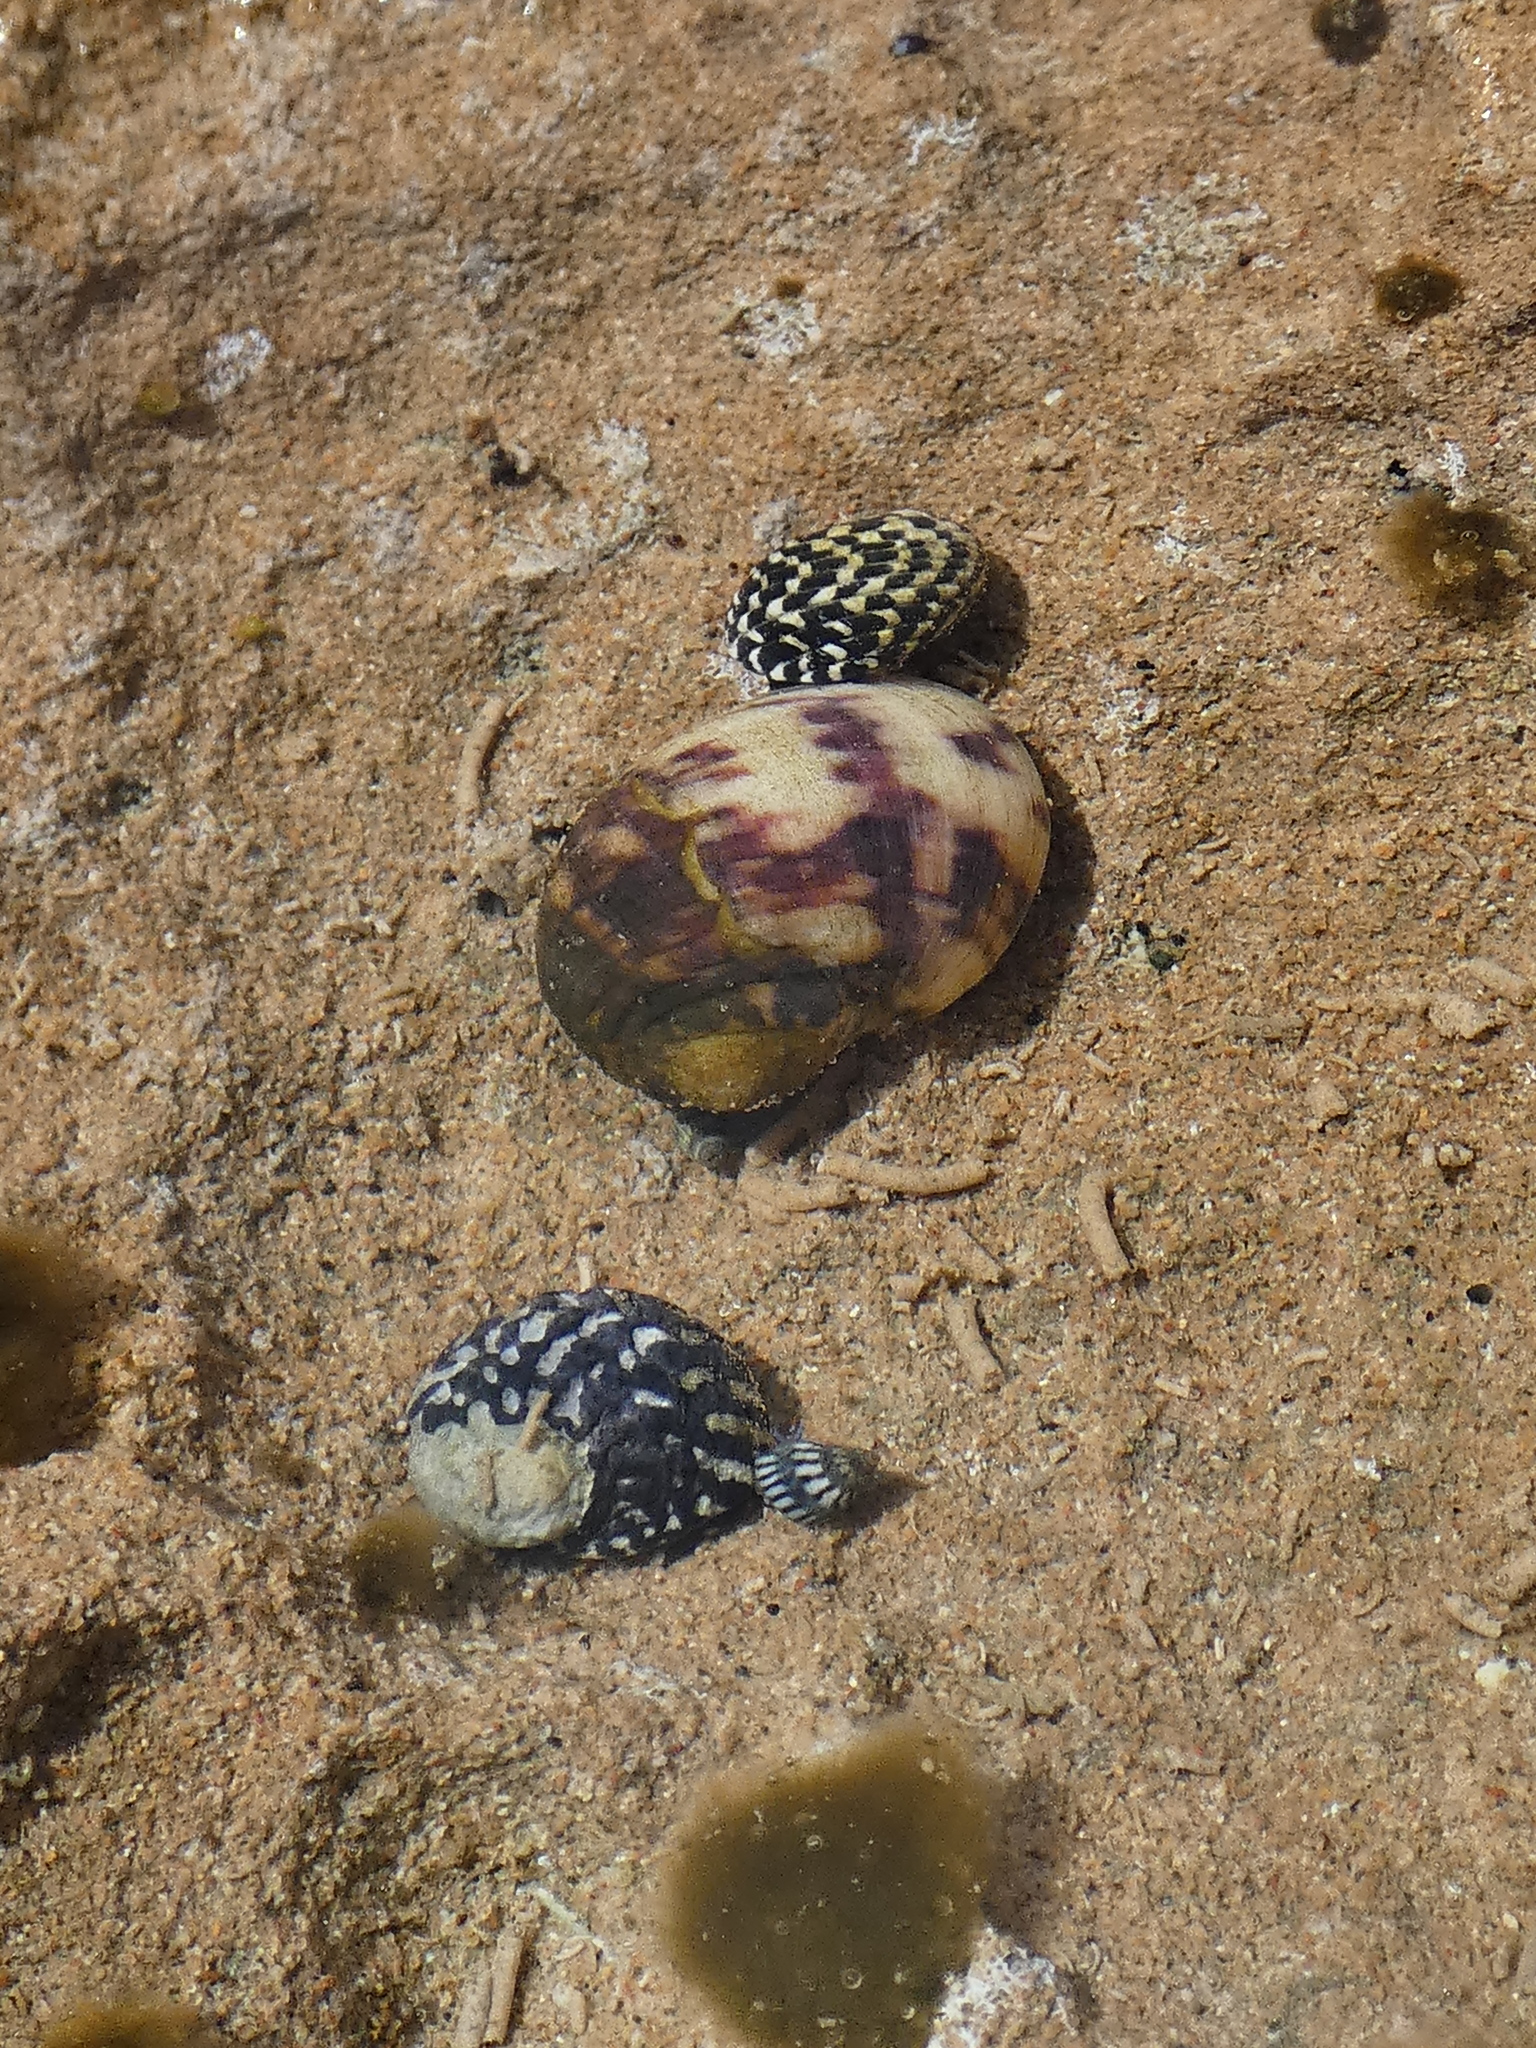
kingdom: Animalia
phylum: Mollusca
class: Gastropoda
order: Cycloneritida
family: Neritidae
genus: Nerita
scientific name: Nerita peloronta
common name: Bleeding tooth
